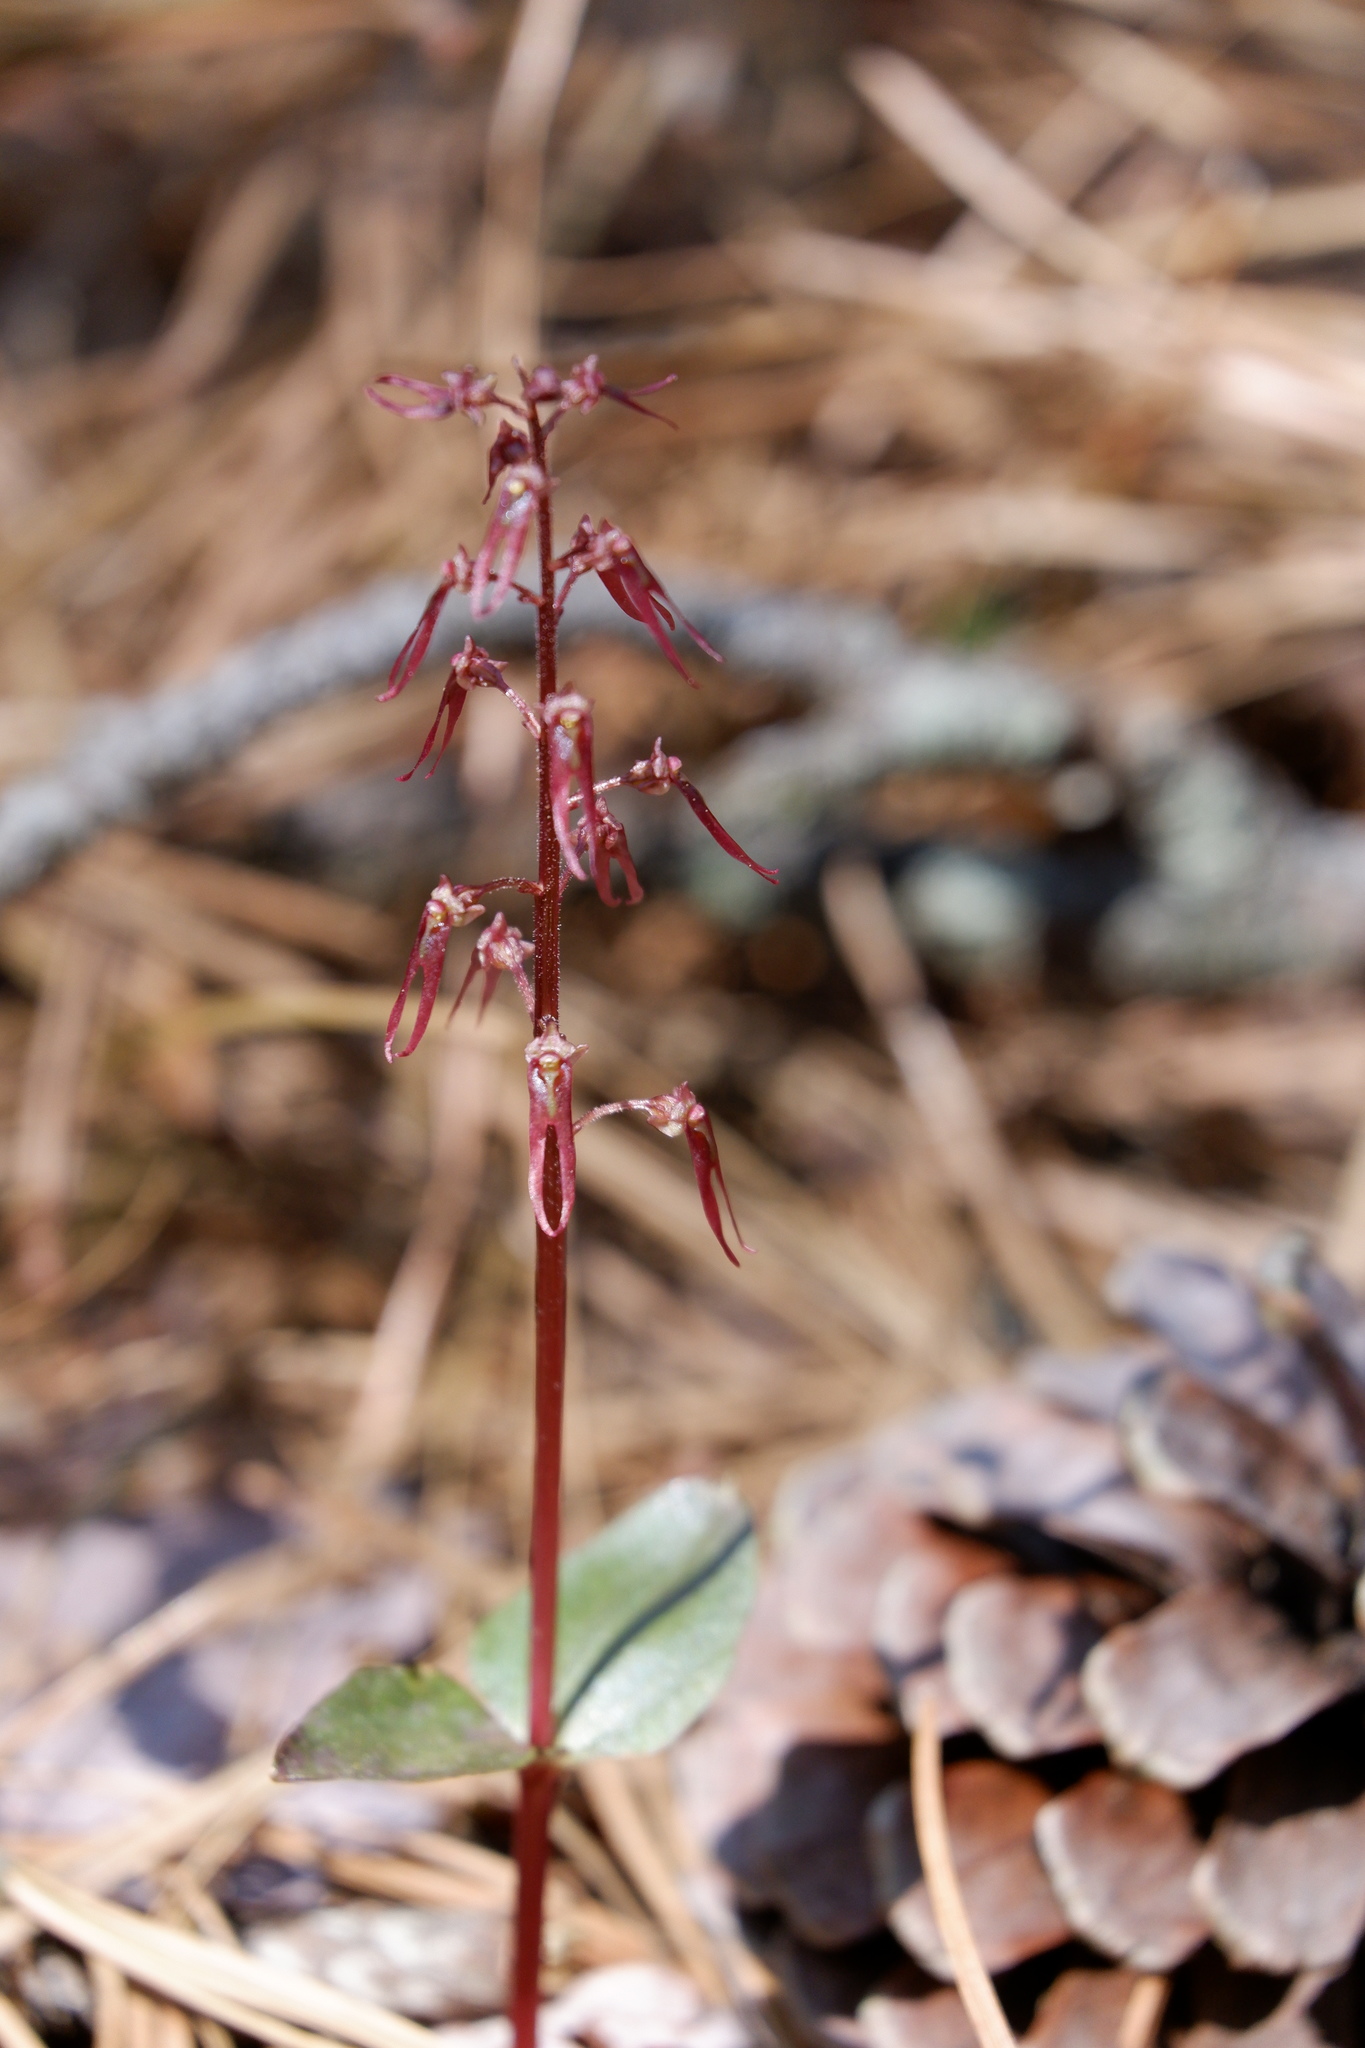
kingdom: Plantae
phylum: Tracheophyta
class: Liliopsida
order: Asparagales
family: Orchidaceae
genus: Neottia
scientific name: Neottia bifolia
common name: Southern twayblade
